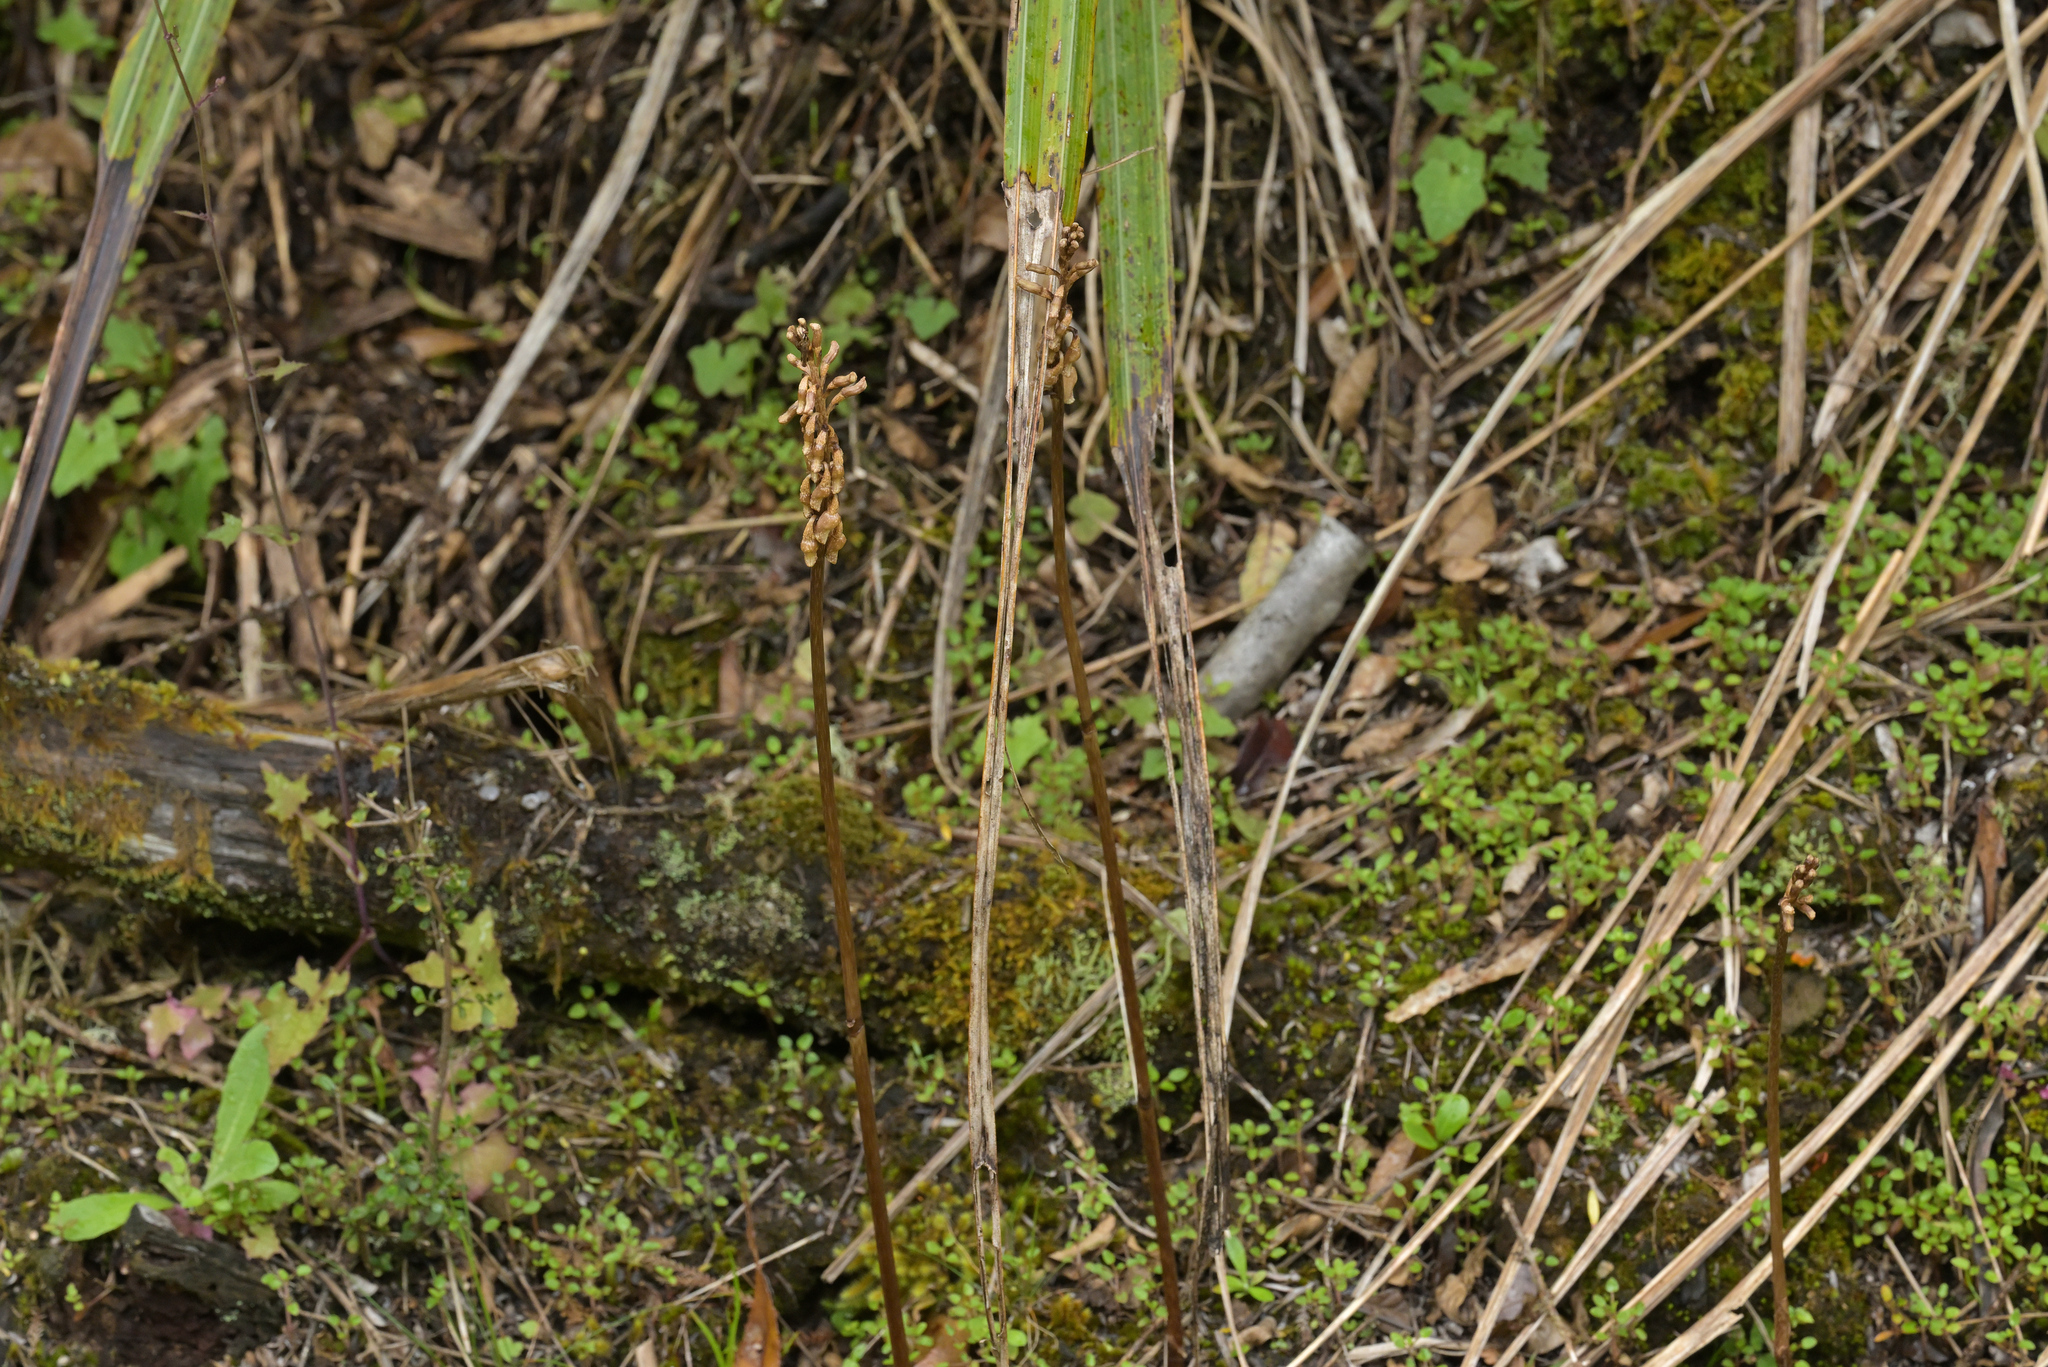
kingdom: Plantae
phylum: Tracheophyta
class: Liliopsida
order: Asparagales
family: Orchidaceae
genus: Gastrodia
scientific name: Gastrodia sesamoides
